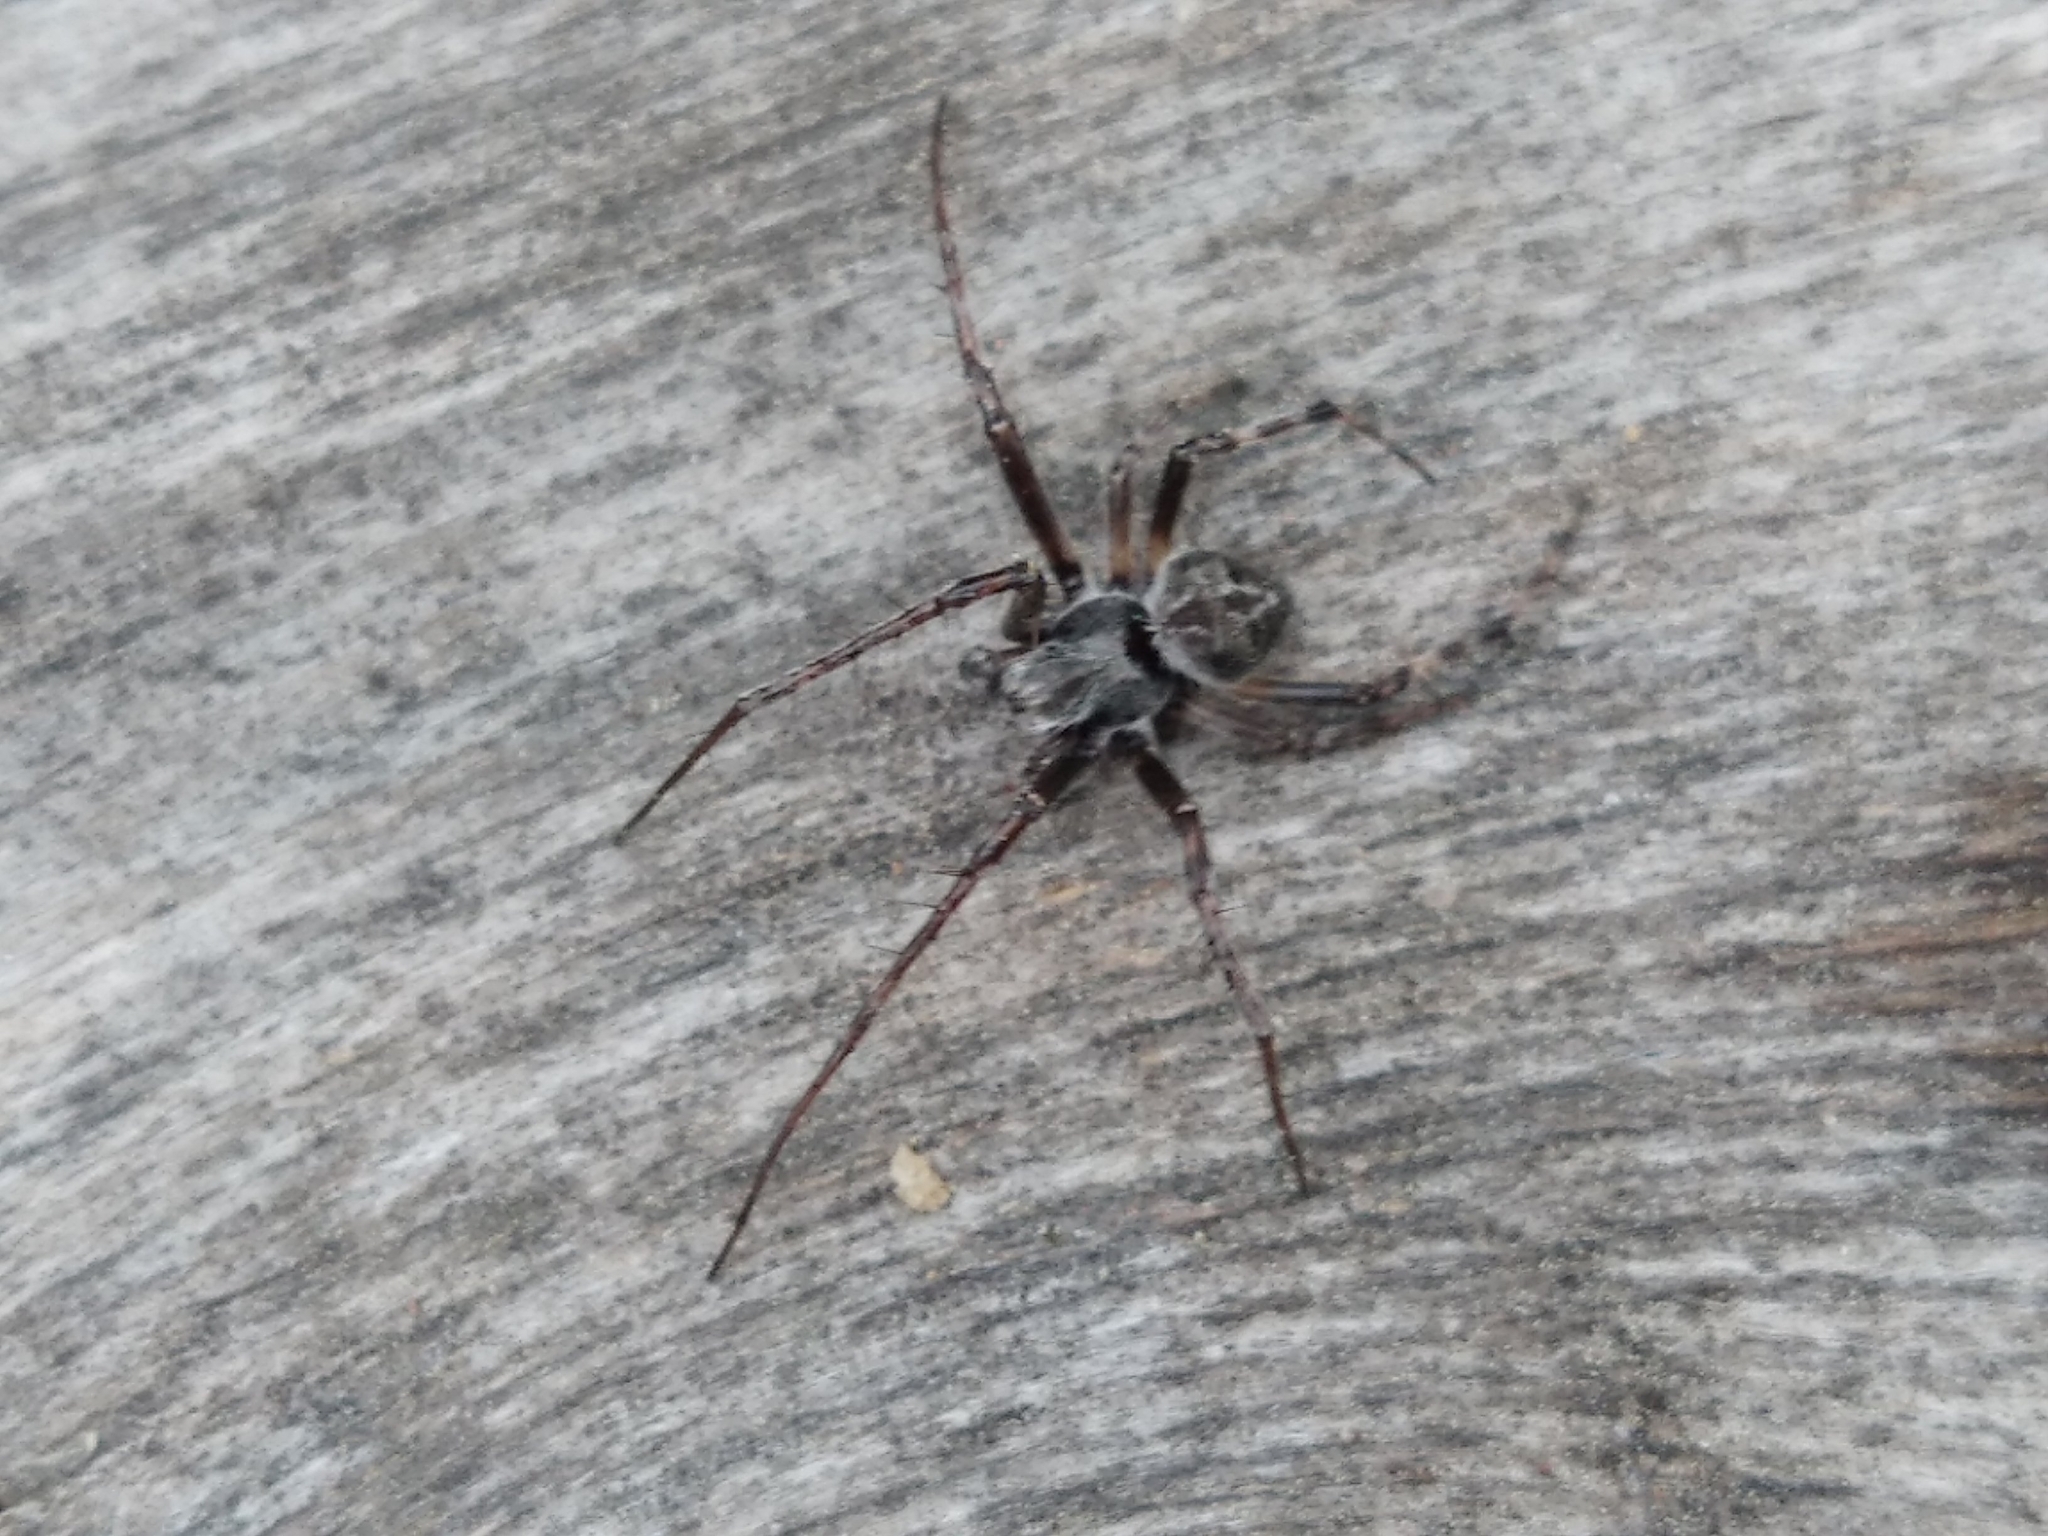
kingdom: Animalia
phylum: Arthropoda
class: Arachnida
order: Araneae
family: Araneidae
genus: Agalenatea
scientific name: Agalenatea redii
